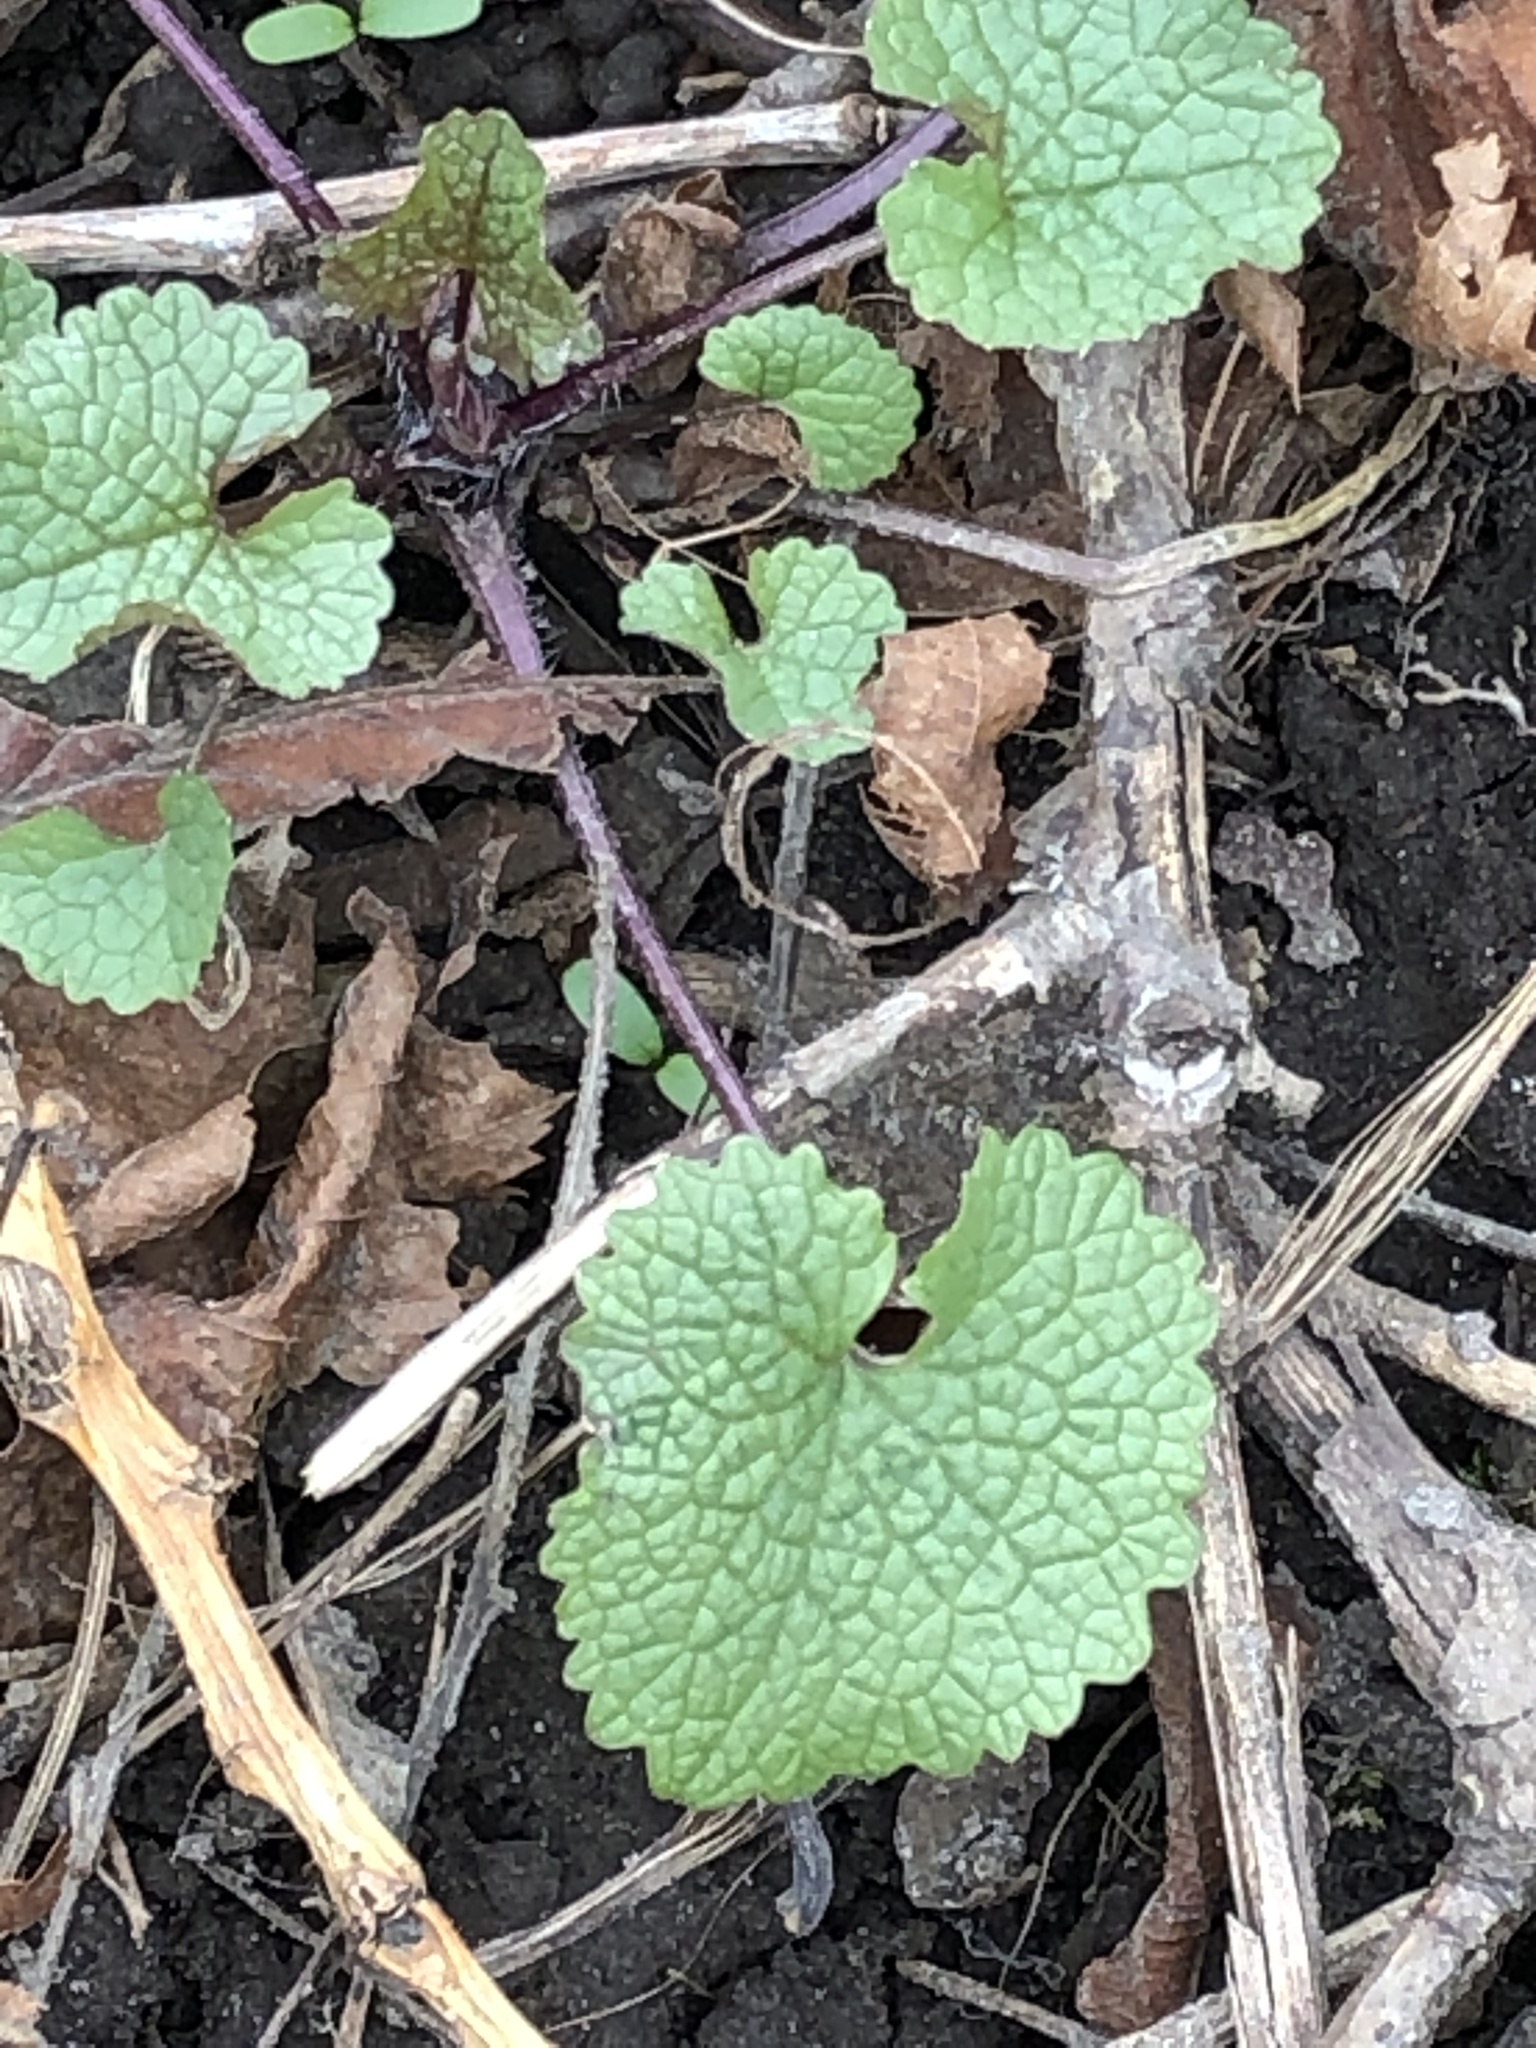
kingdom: Plantae
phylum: Tracheophyta
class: Magnoliopsida
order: Brassicales
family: Brassicaceae
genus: Alliaria
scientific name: Alliaria petiolata
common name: Garlic mustard
